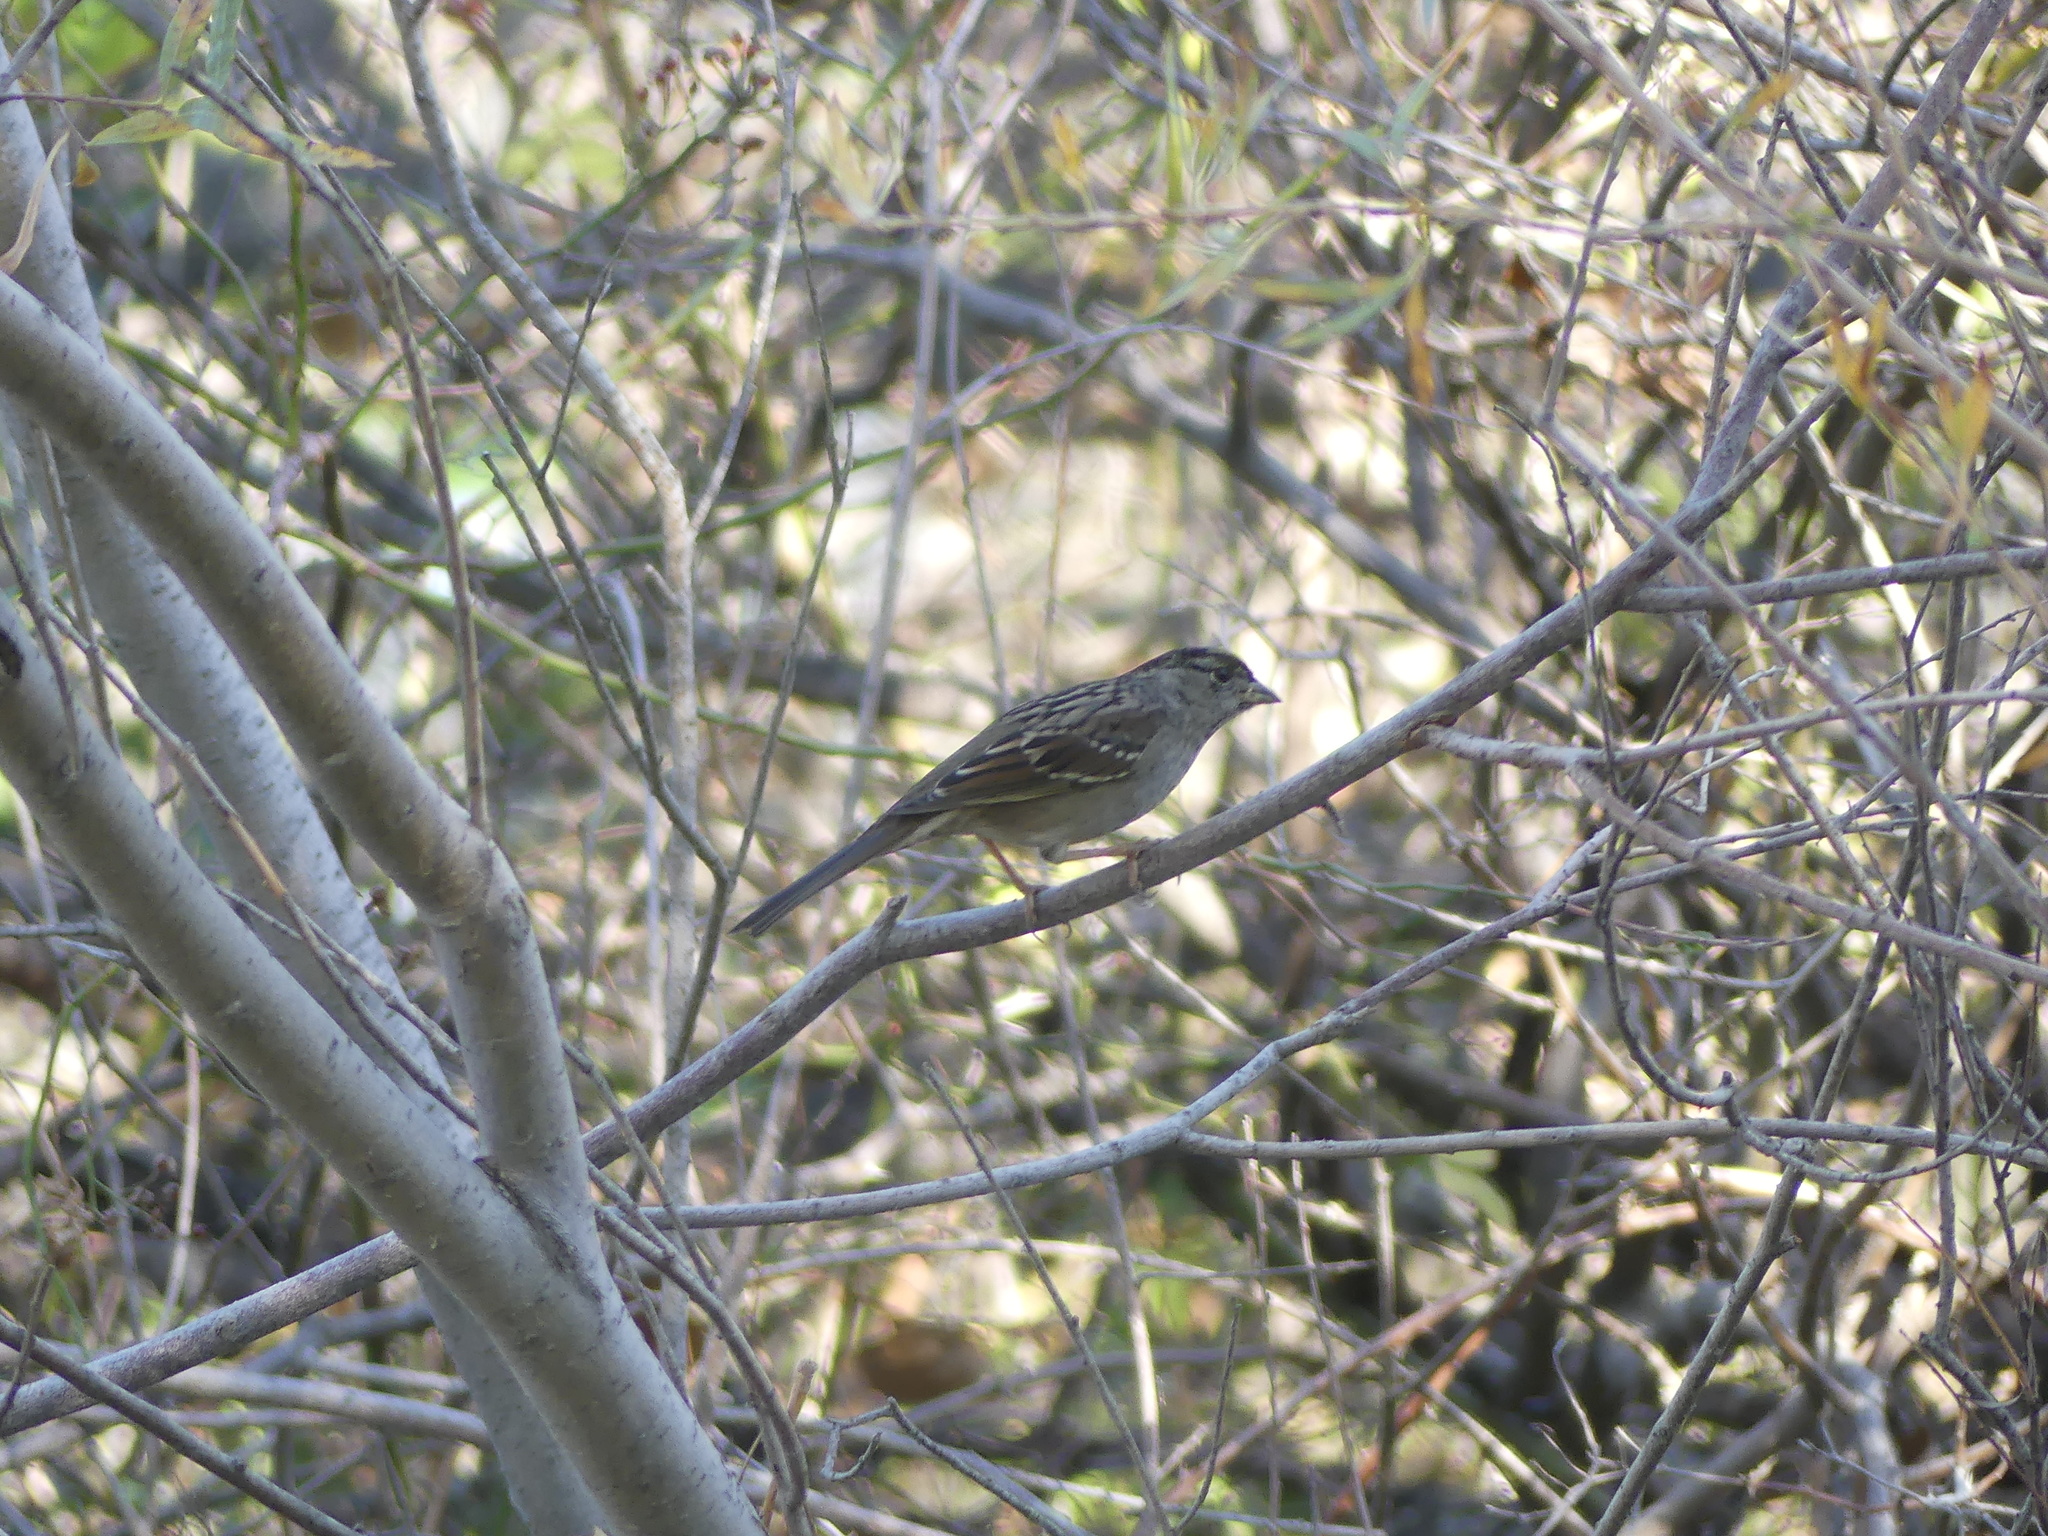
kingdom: Animalia
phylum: Chordata
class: Aves
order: Passeriformes
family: Passerellidae
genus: Zonotrichia
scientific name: Zonotrichia atricapilla
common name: Golden-crowned sparrow
